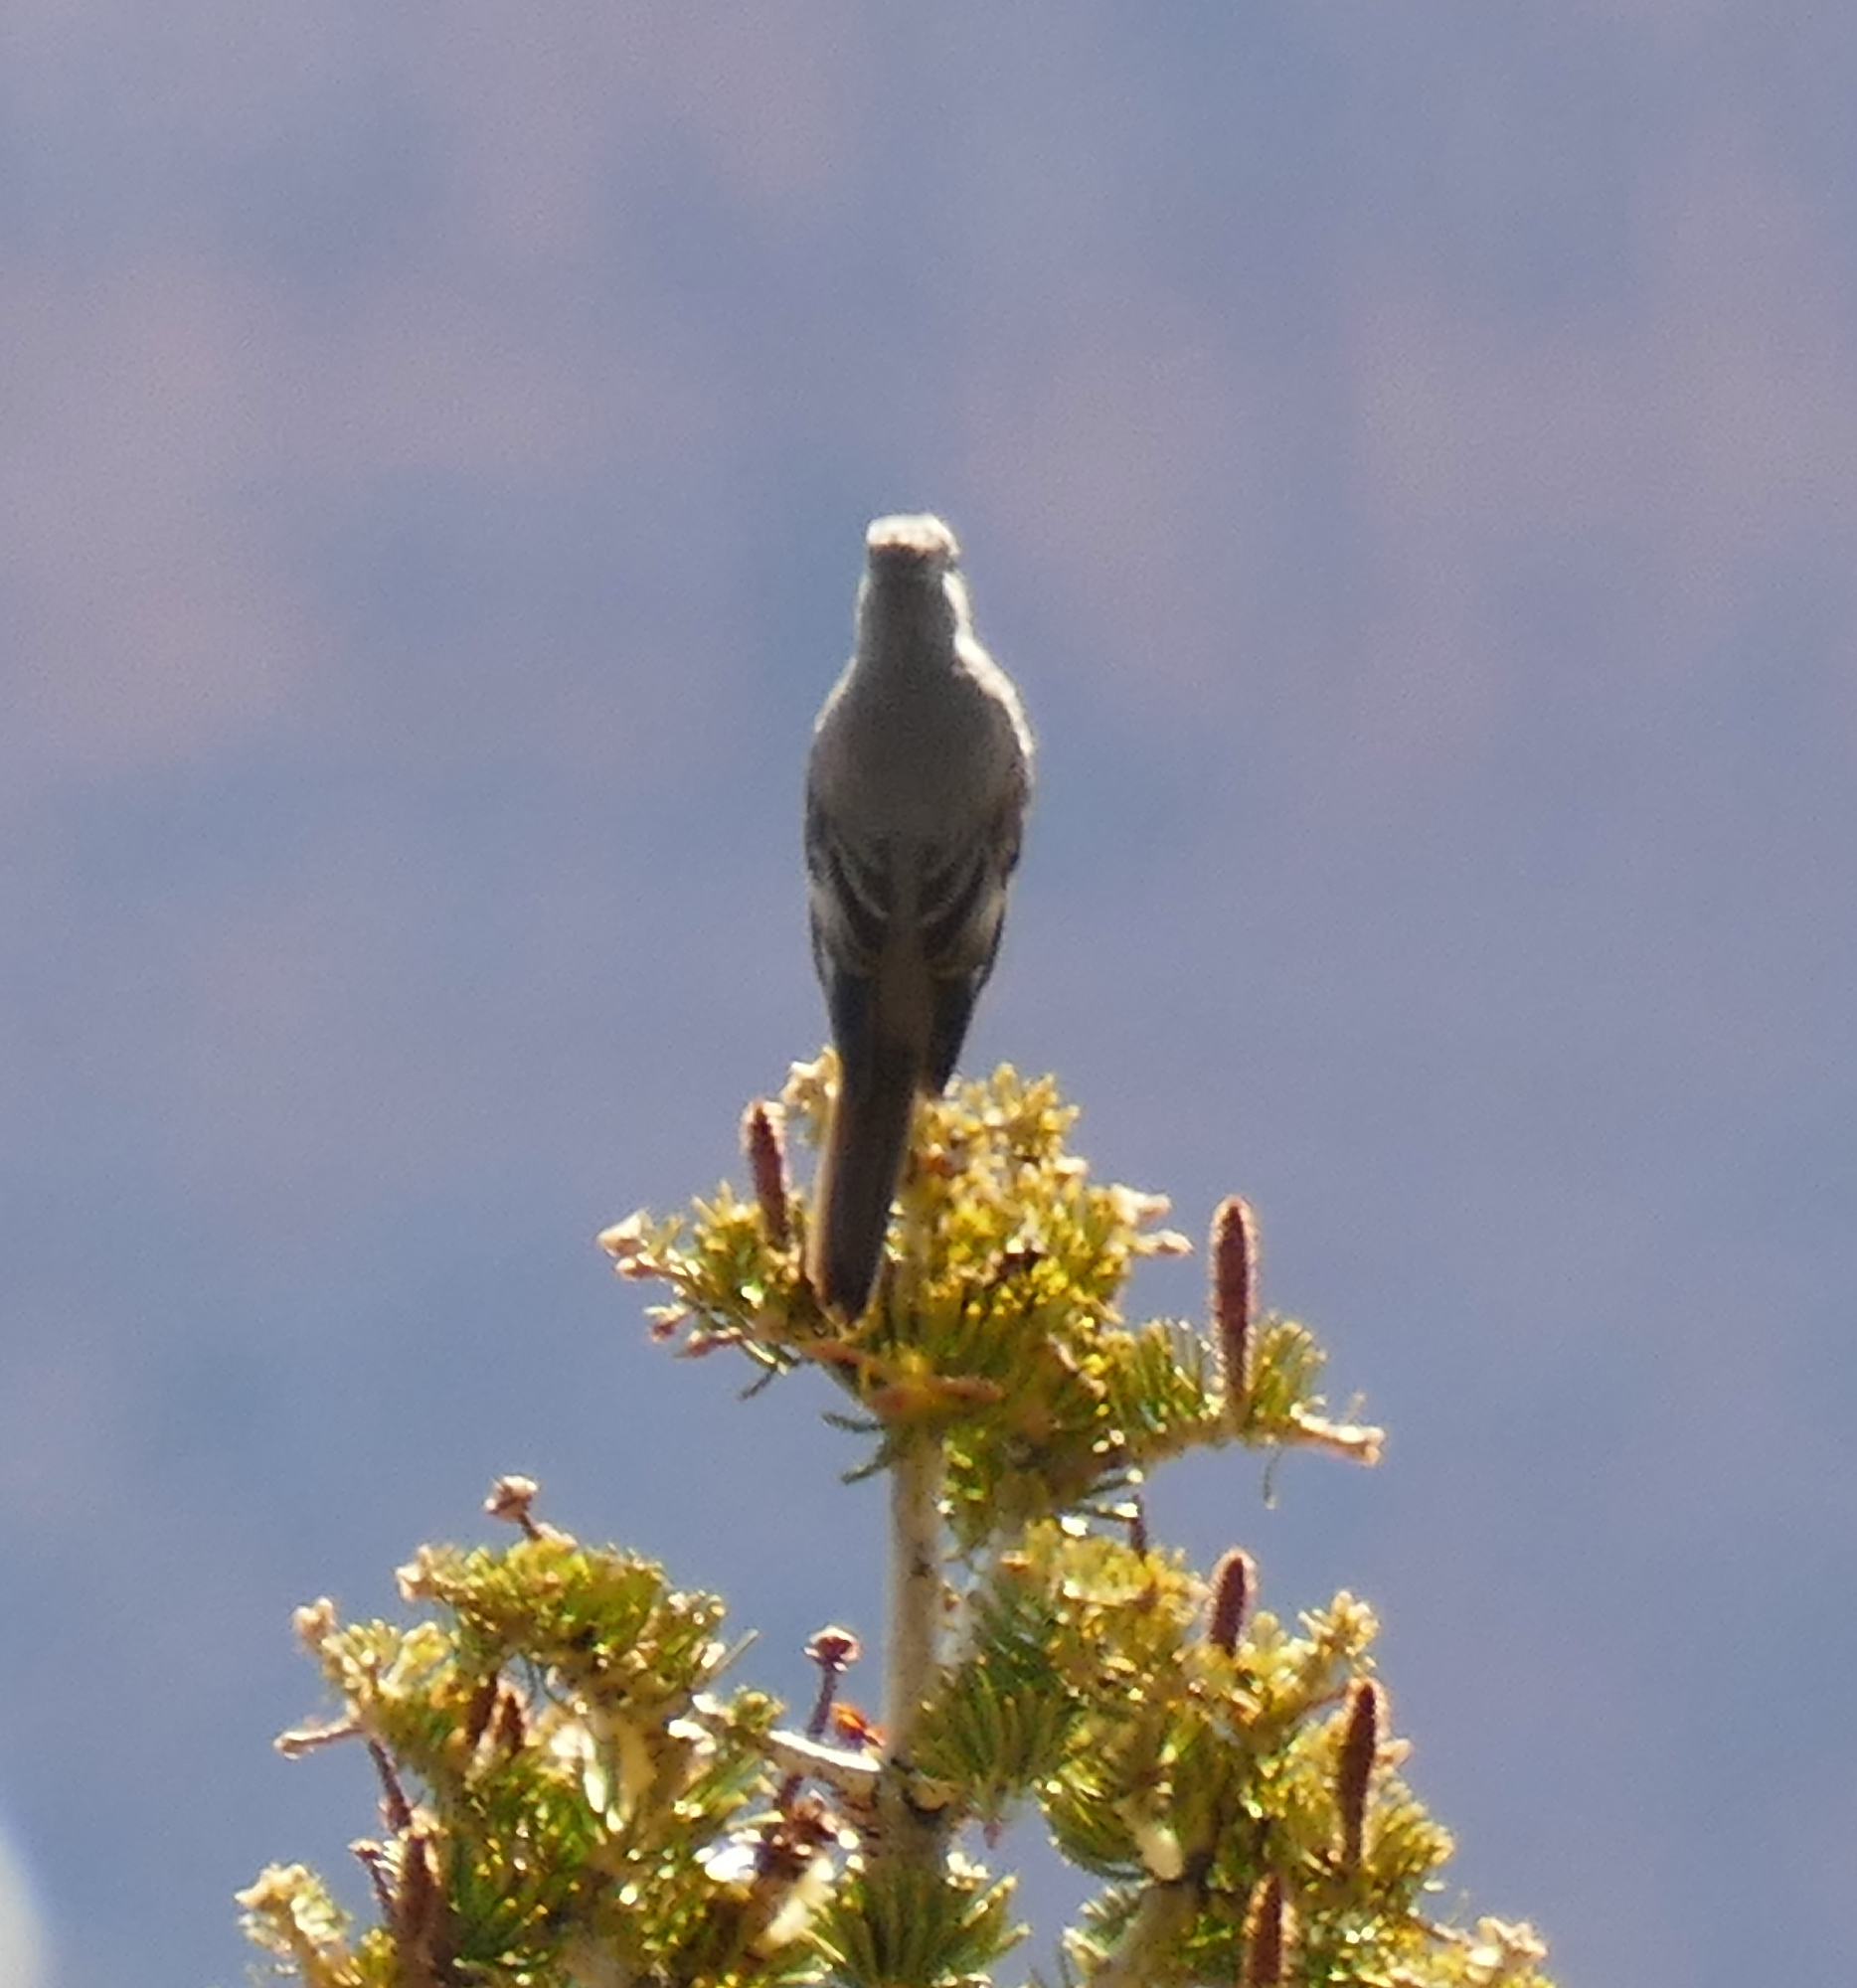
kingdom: Animalia
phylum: Chordata
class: Aves
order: Passeriformes
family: Turdidae
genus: Myadestes
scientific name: Myadestes townsendi
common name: Townsend's solitaire
